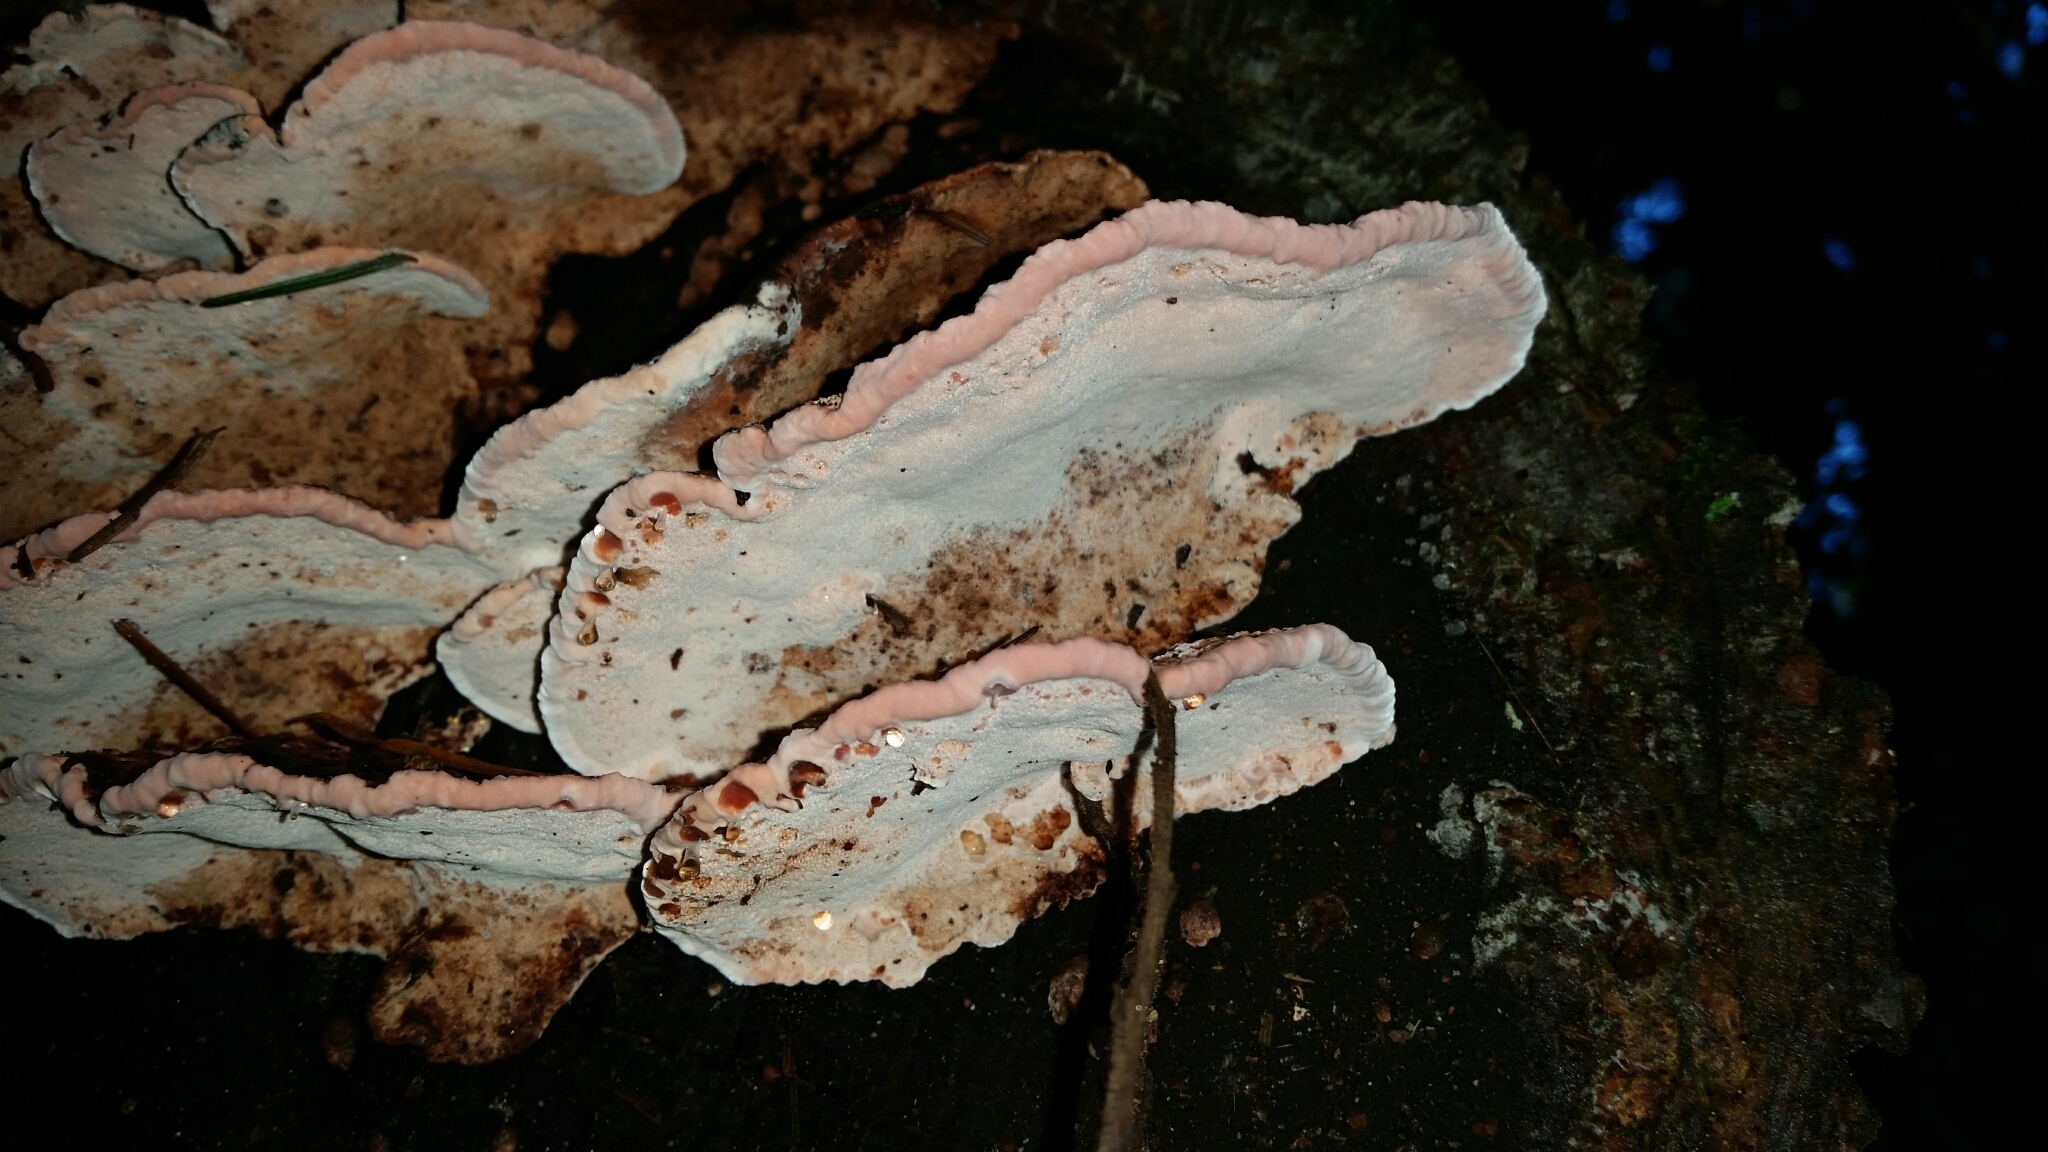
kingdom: Fungi
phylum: Basidiomycota
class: Agaricomycetes
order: Polyporales
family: Fomitopsidaceae
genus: Rhodofomes
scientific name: Rhodofomes cajanderi
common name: Rosy conk
